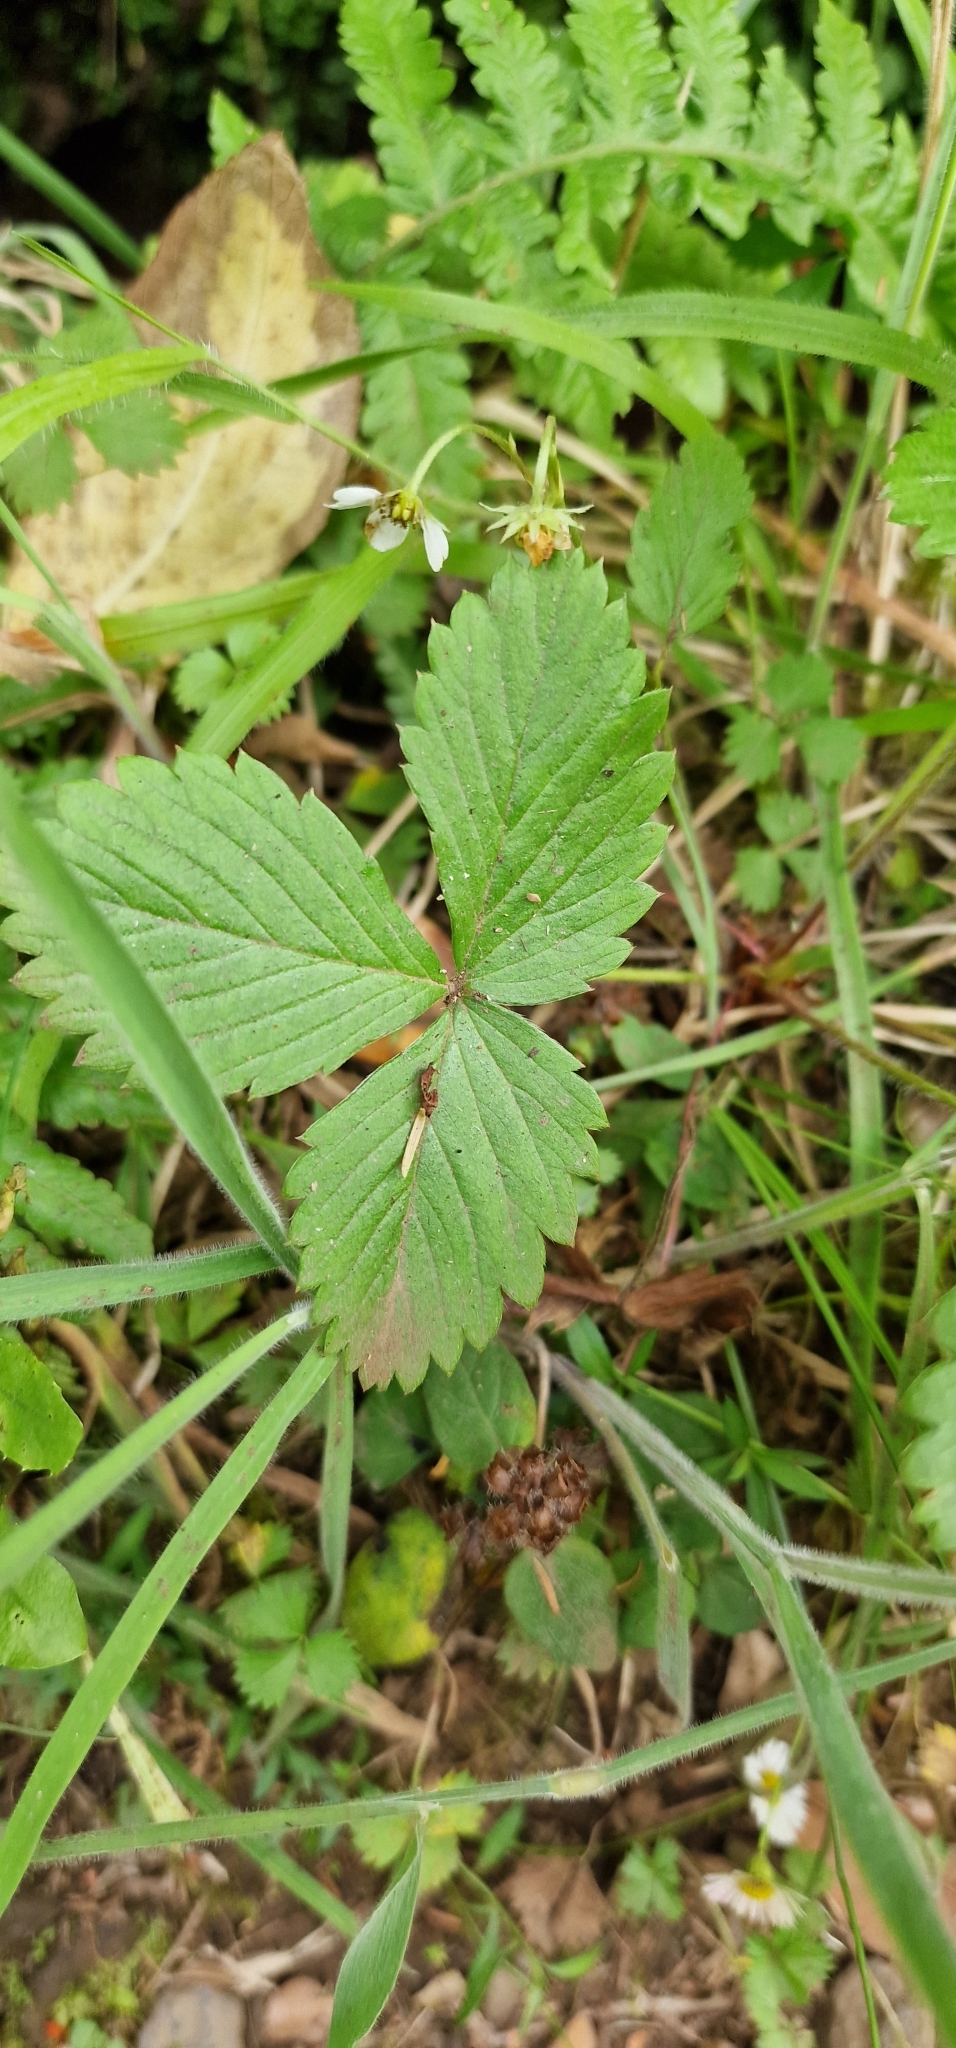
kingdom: Plantae
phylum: Tracheophyta
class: Magnoliopsida
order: Rosales
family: Rosaceae
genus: Fragaria
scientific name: Fragaria vesca
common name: Wild strawberry
